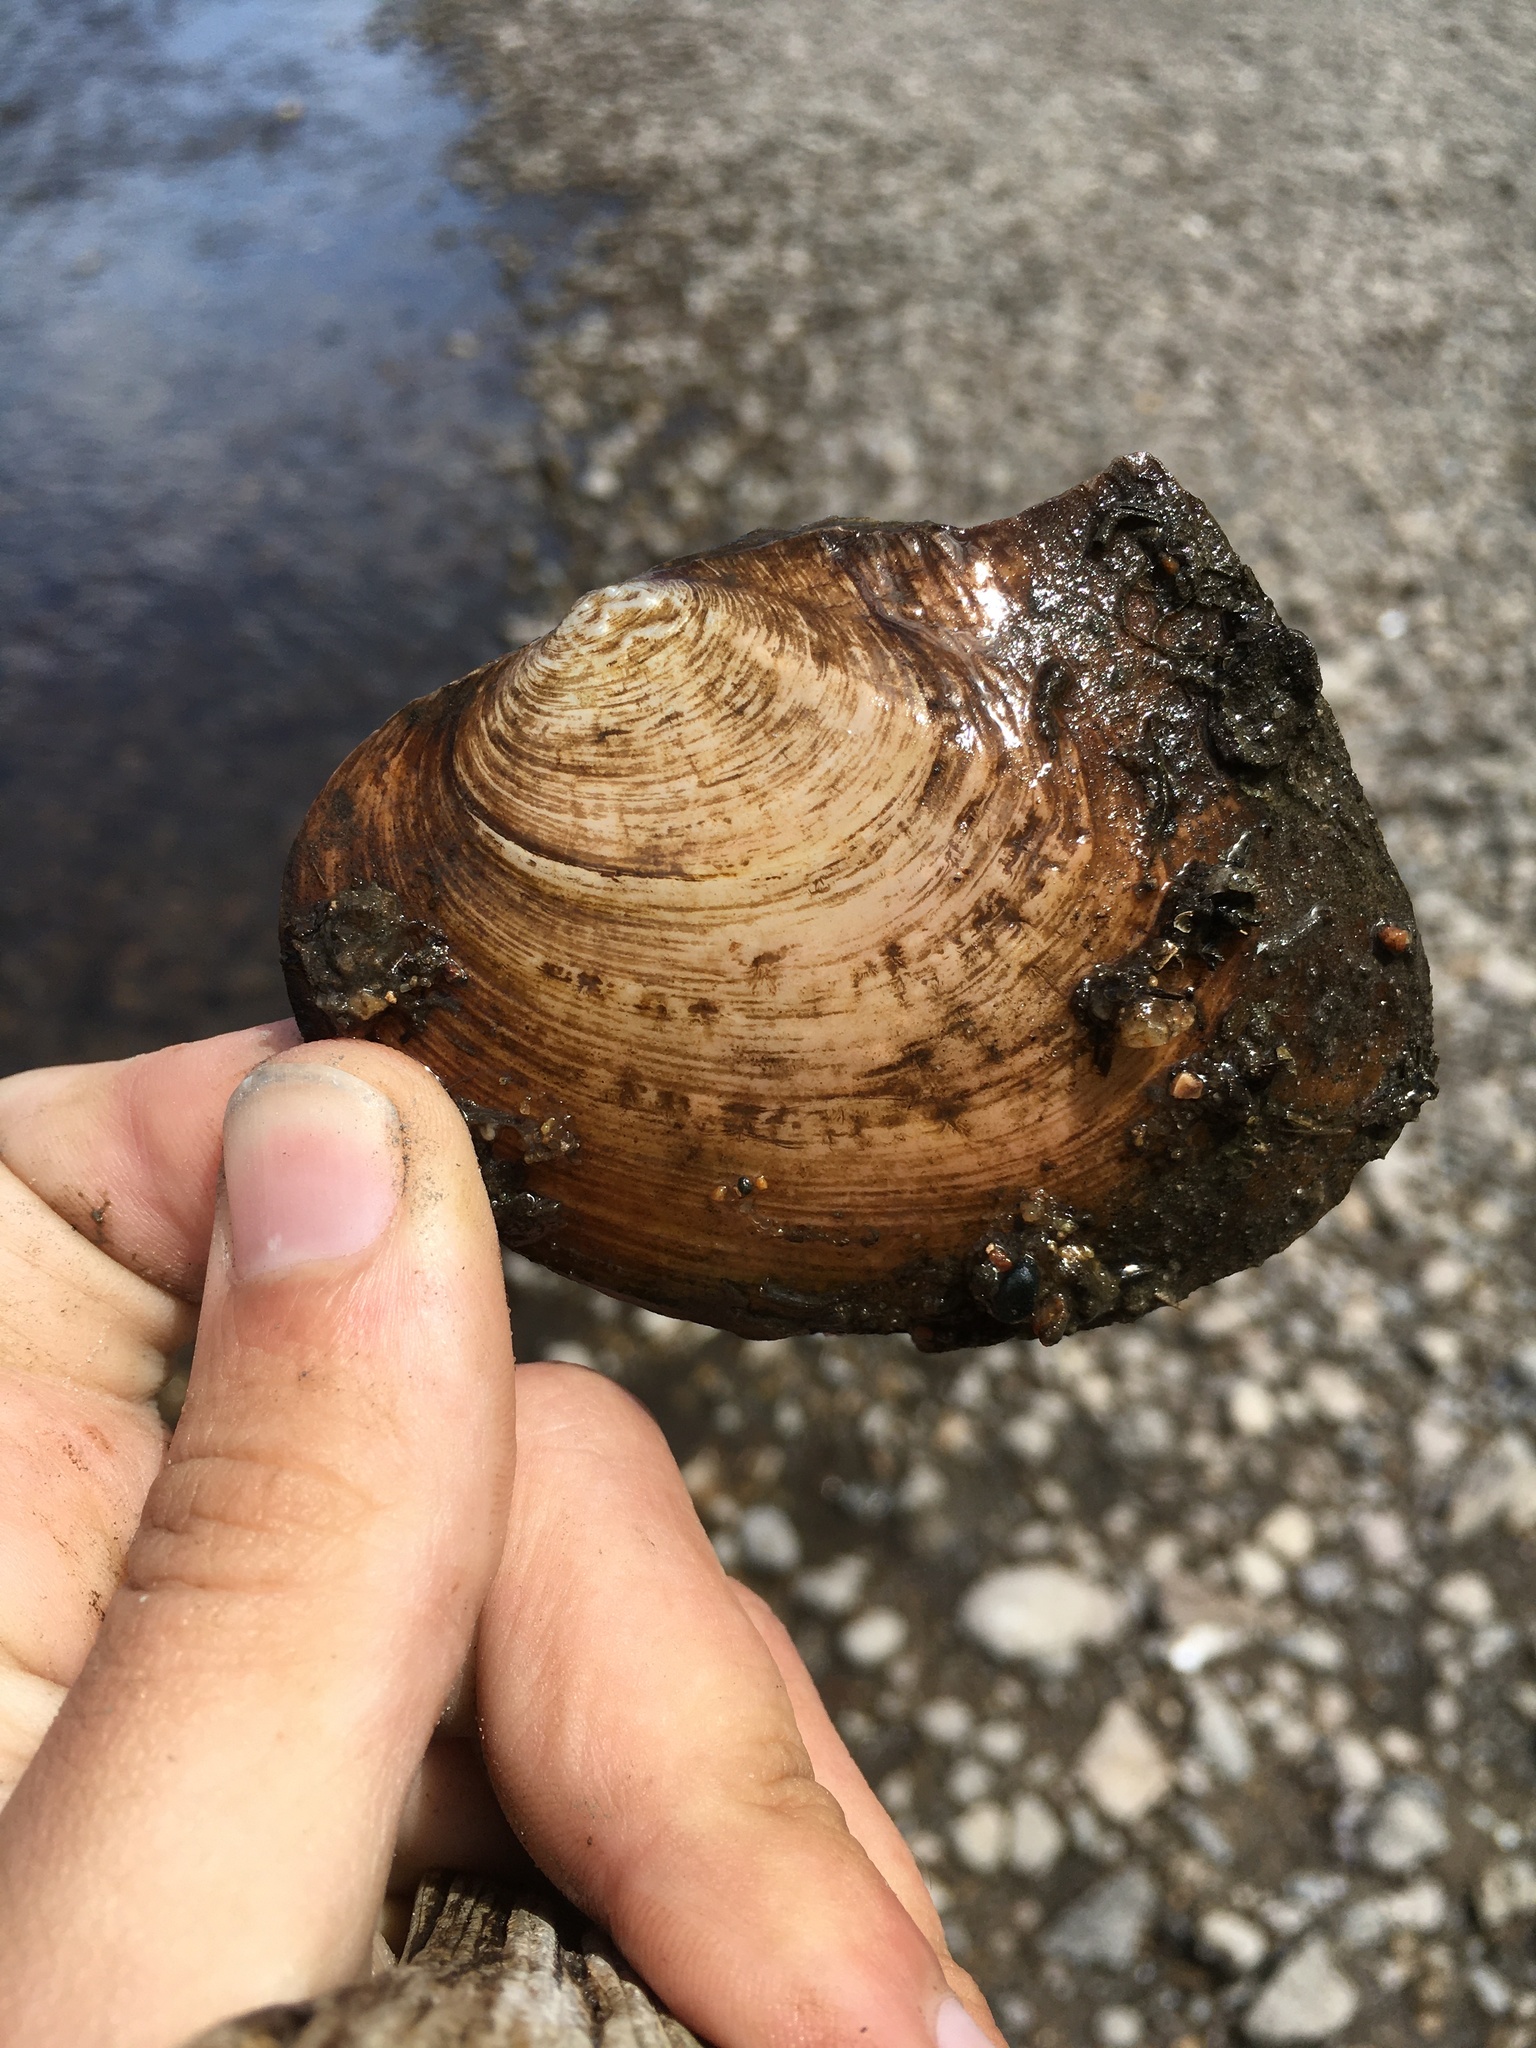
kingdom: Animalia
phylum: Mollusca
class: Bivalvia
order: Unionida
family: Unionidae
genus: Lasmigona
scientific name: Lasmigona complanata
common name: White heelsplitter
